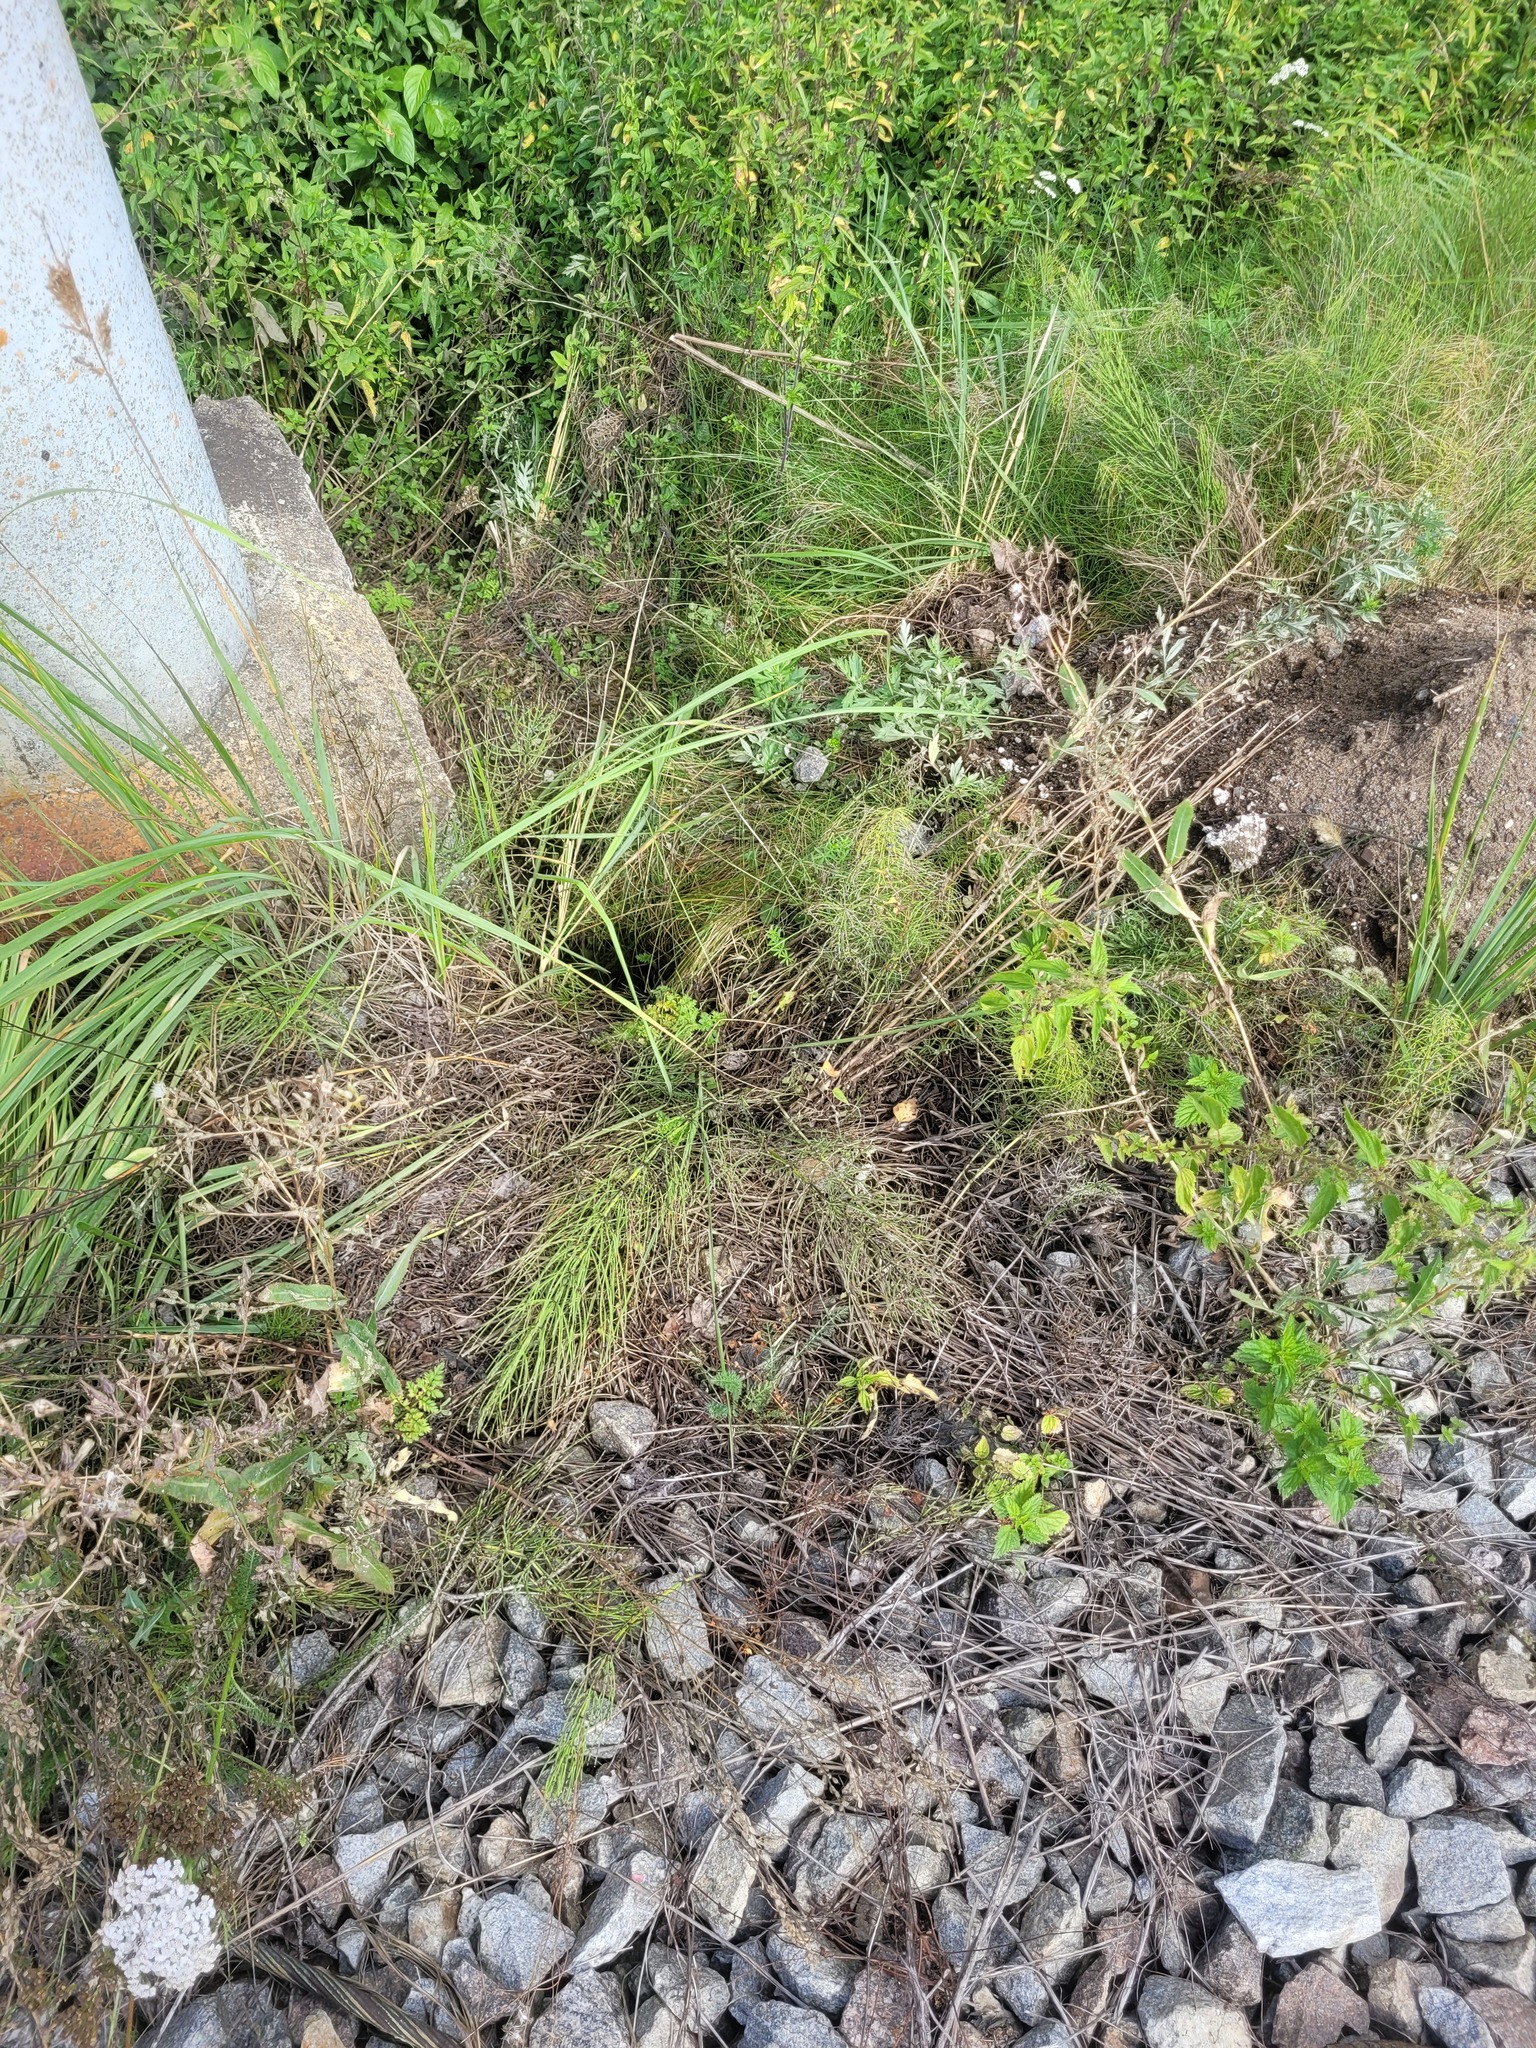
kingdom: Plantae
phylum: Tracheophyta
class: Polypodiopsida
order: Equisetales
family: Equisetaceae
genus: Equisetum
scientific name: Equisetum arvense
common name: Field horsetail
